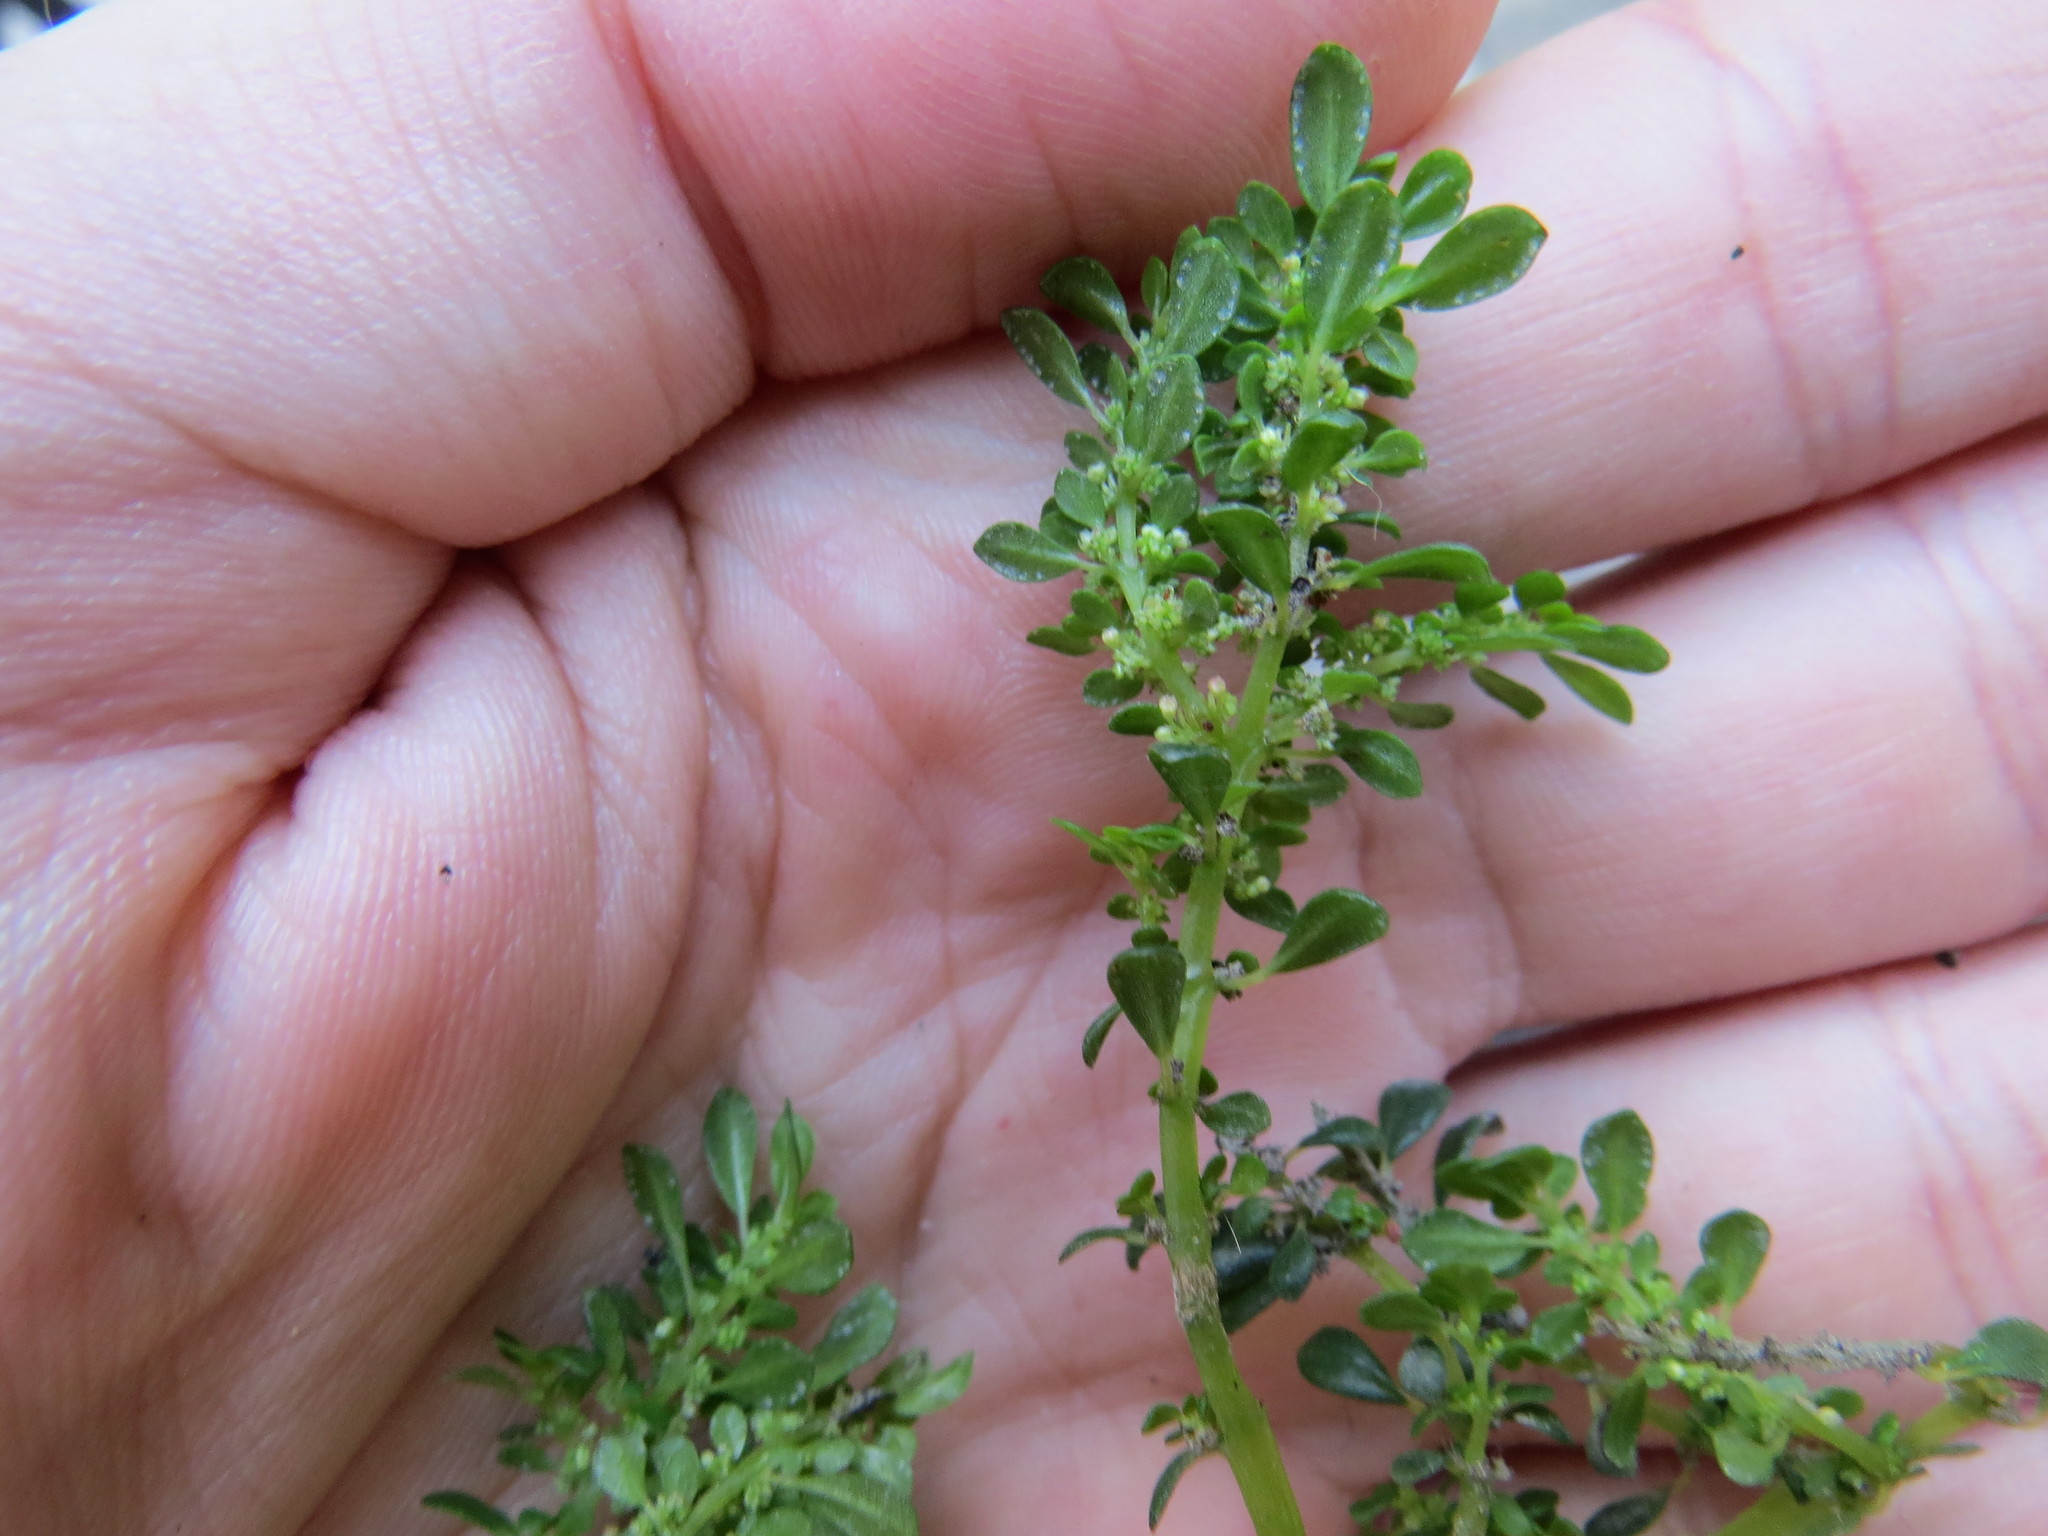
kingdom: Plantae
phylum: Tracheophyta
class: Magnoliopsida
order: Rosales
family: Urticaceae
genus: Pilea
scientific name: Pilea microphylla
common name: Artillery-plant
